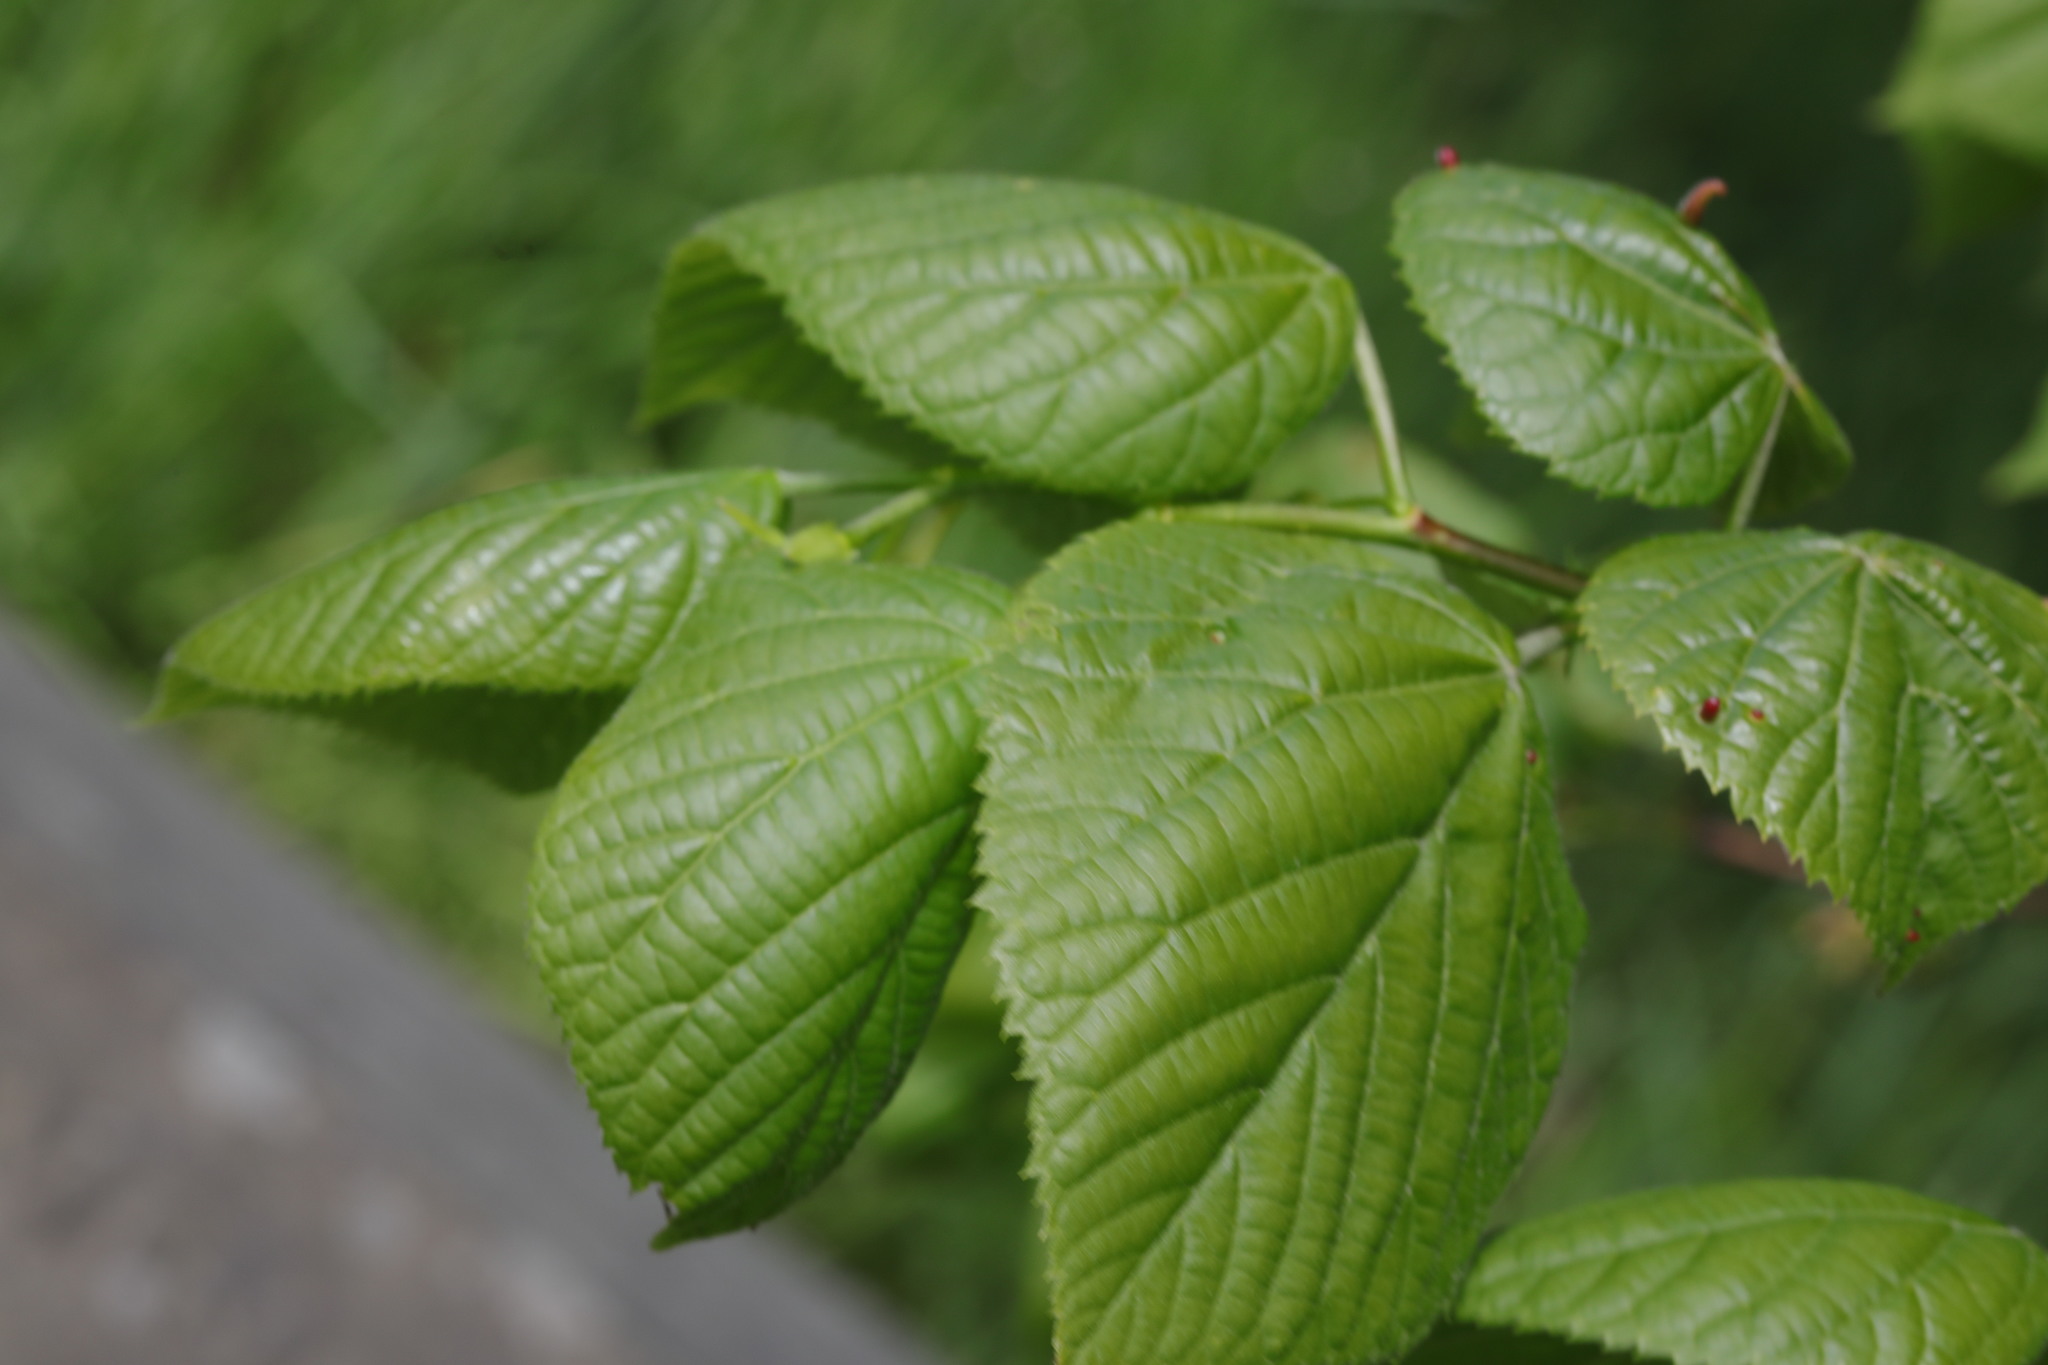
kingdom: Plantae
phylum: Tracheophyta
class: Magnoliopsida
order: Malvales
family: Malvaceae
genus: Tilia
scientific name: Tilia europaea
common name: European linden
